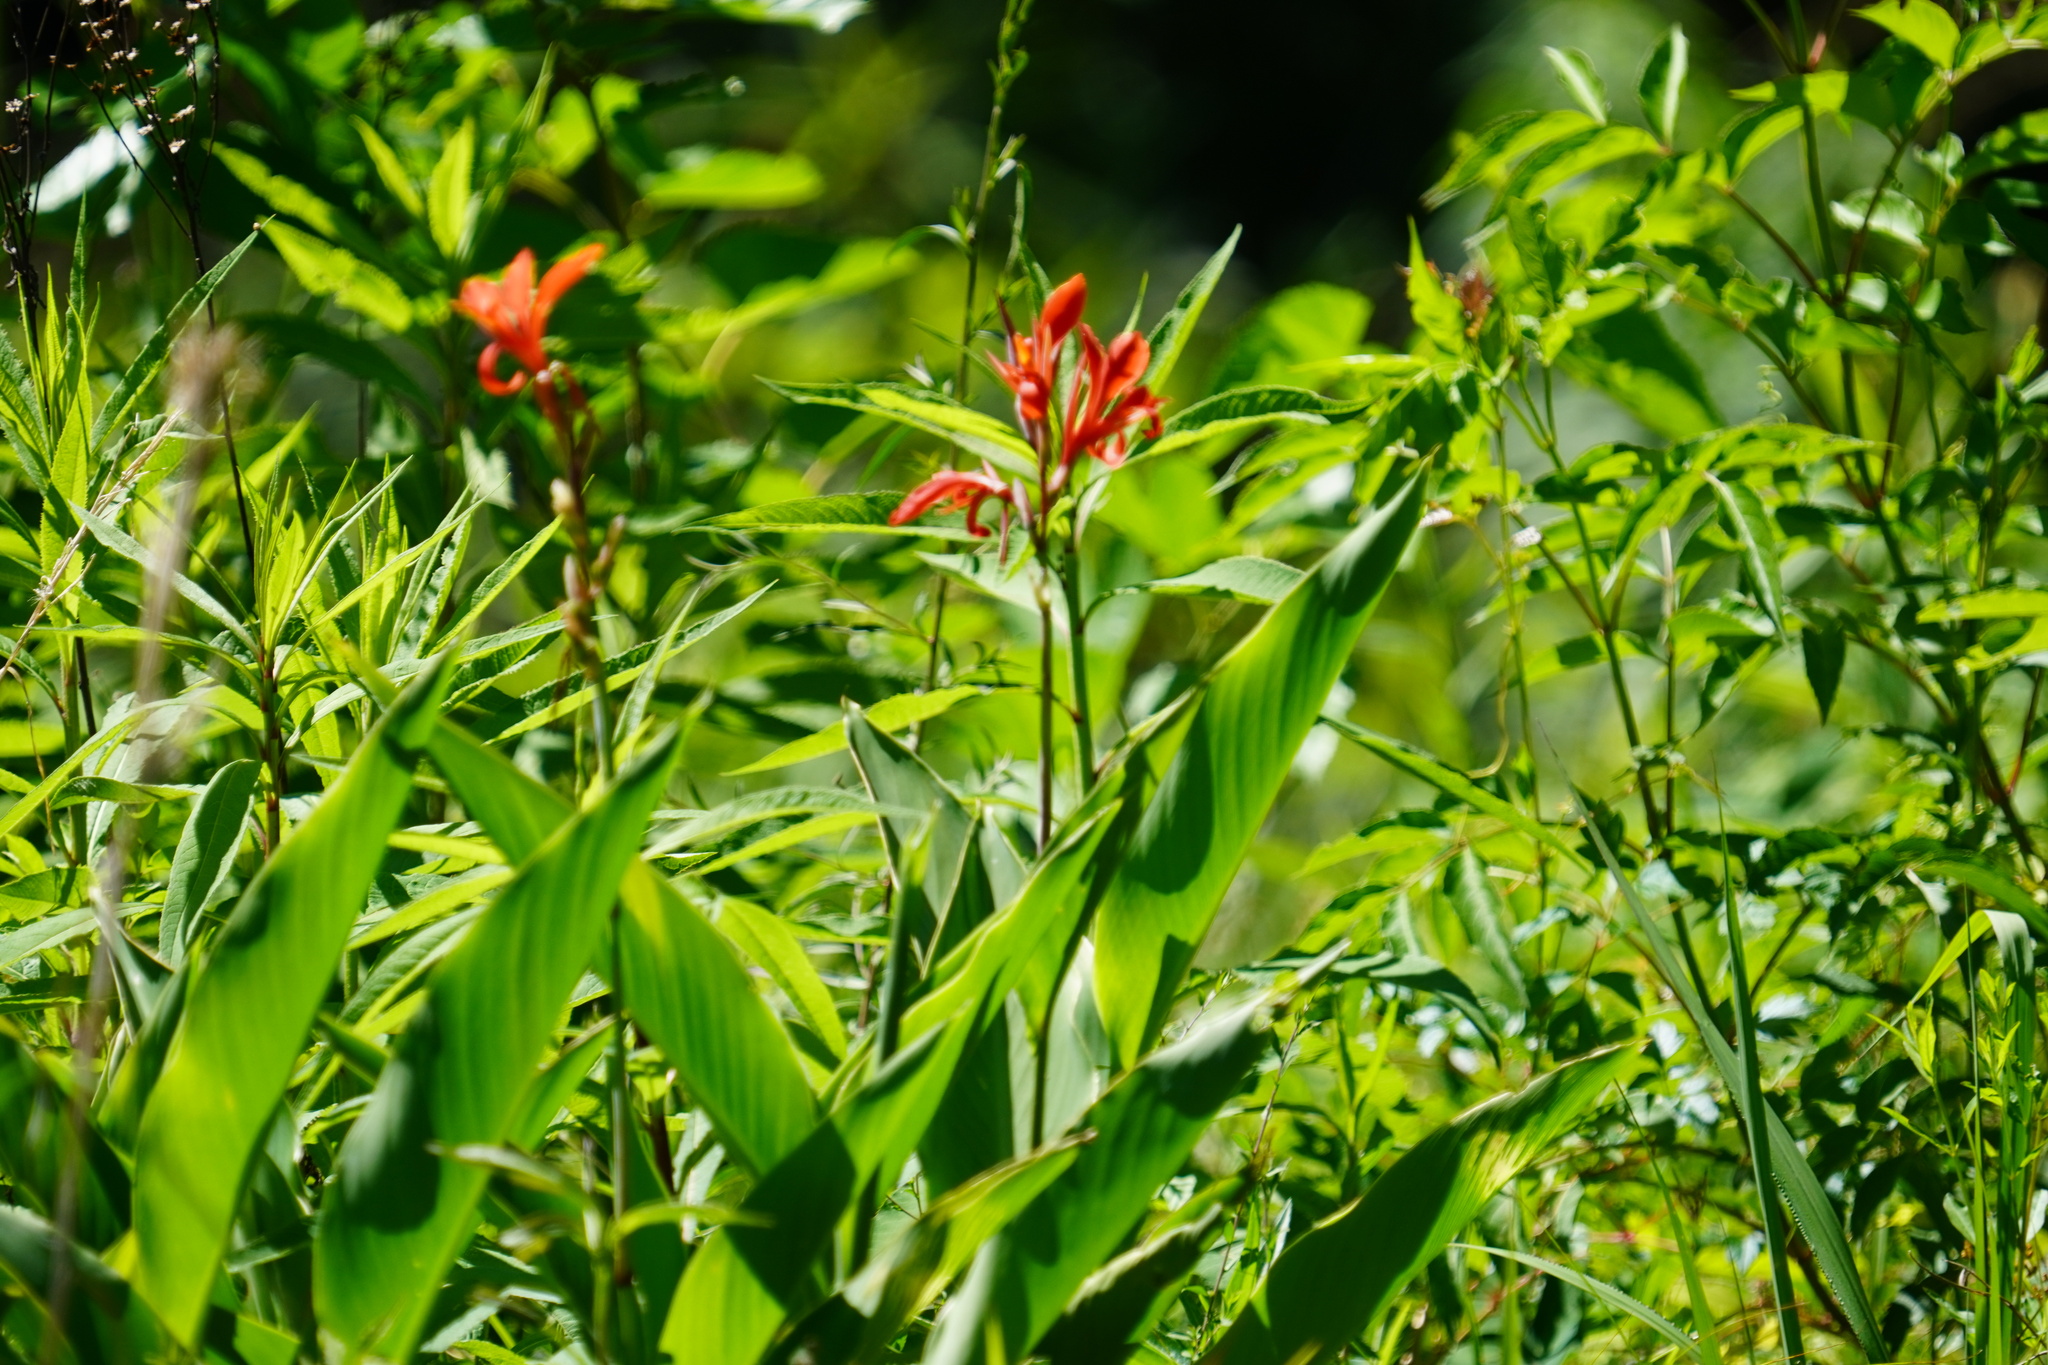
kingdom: Plantae
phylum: Tracheophyta
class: Liliopsida
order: Zingiberales
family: Cannaceae
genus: Canna
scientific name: Canna indica
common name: Indian shot
